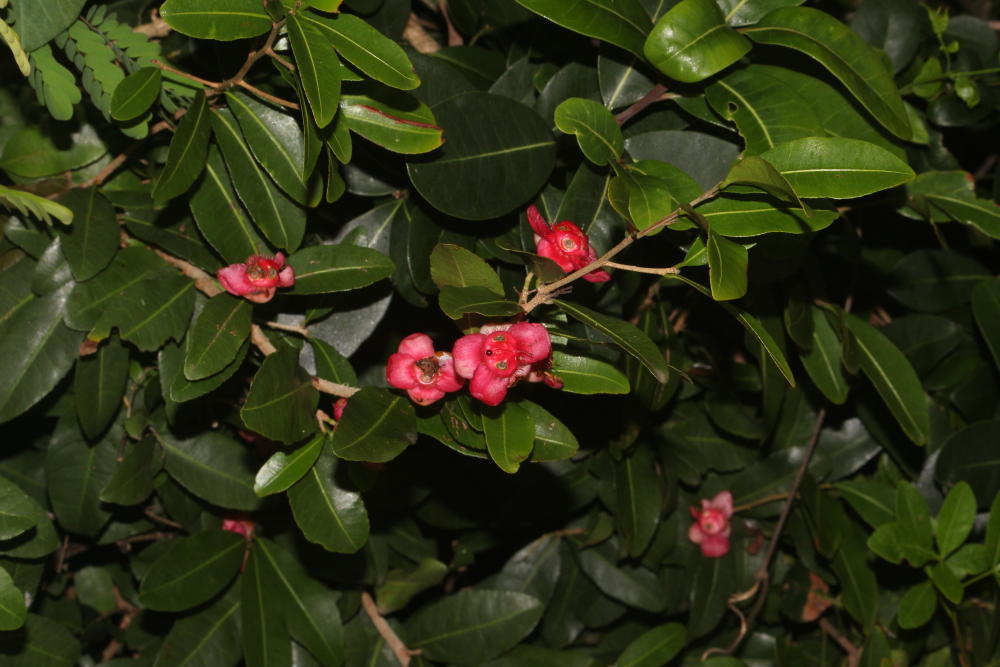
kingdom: Plantae
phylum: Tracheophyta
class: Magnoliopsida
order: Malpighiales
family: Ochnaceae
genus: Ochna
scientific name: Ochna barbosae
